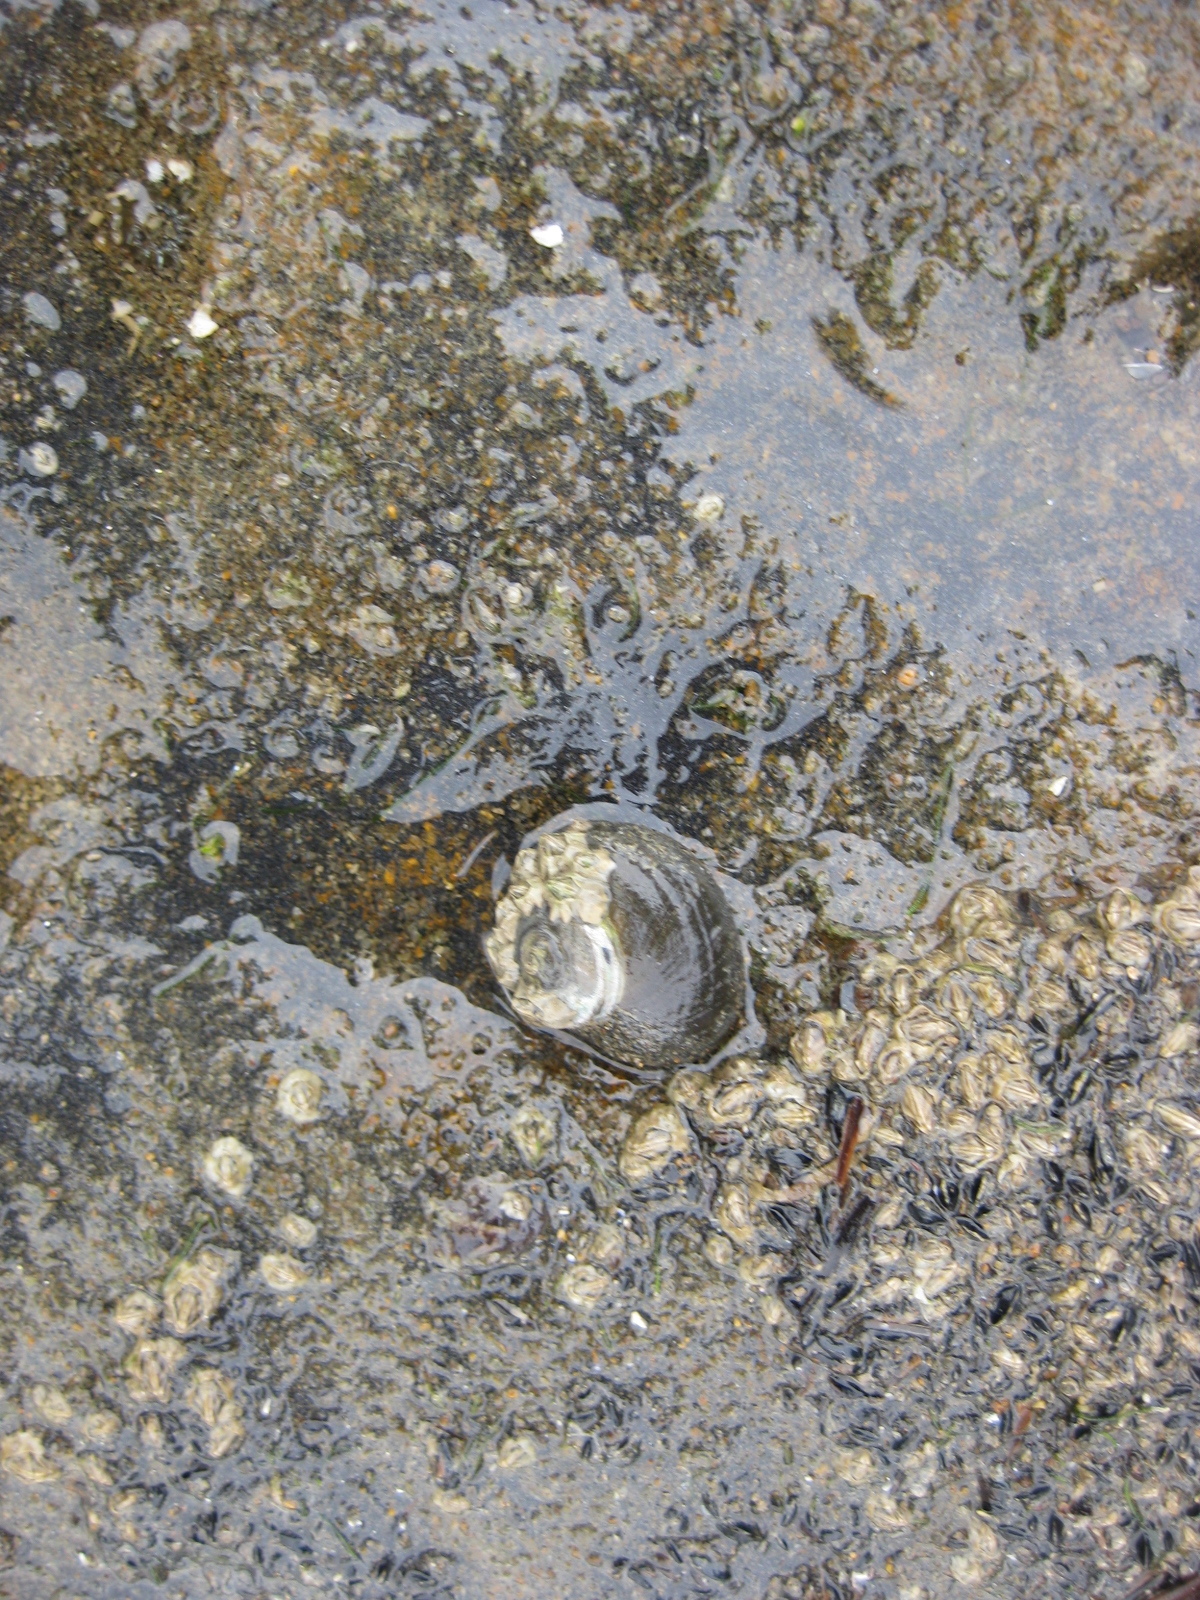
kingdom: Animalia
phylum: Mollusca
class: Gastropoda
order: Trochida
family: Turbinidae
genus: Lunella
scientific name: Lunella smaragda
